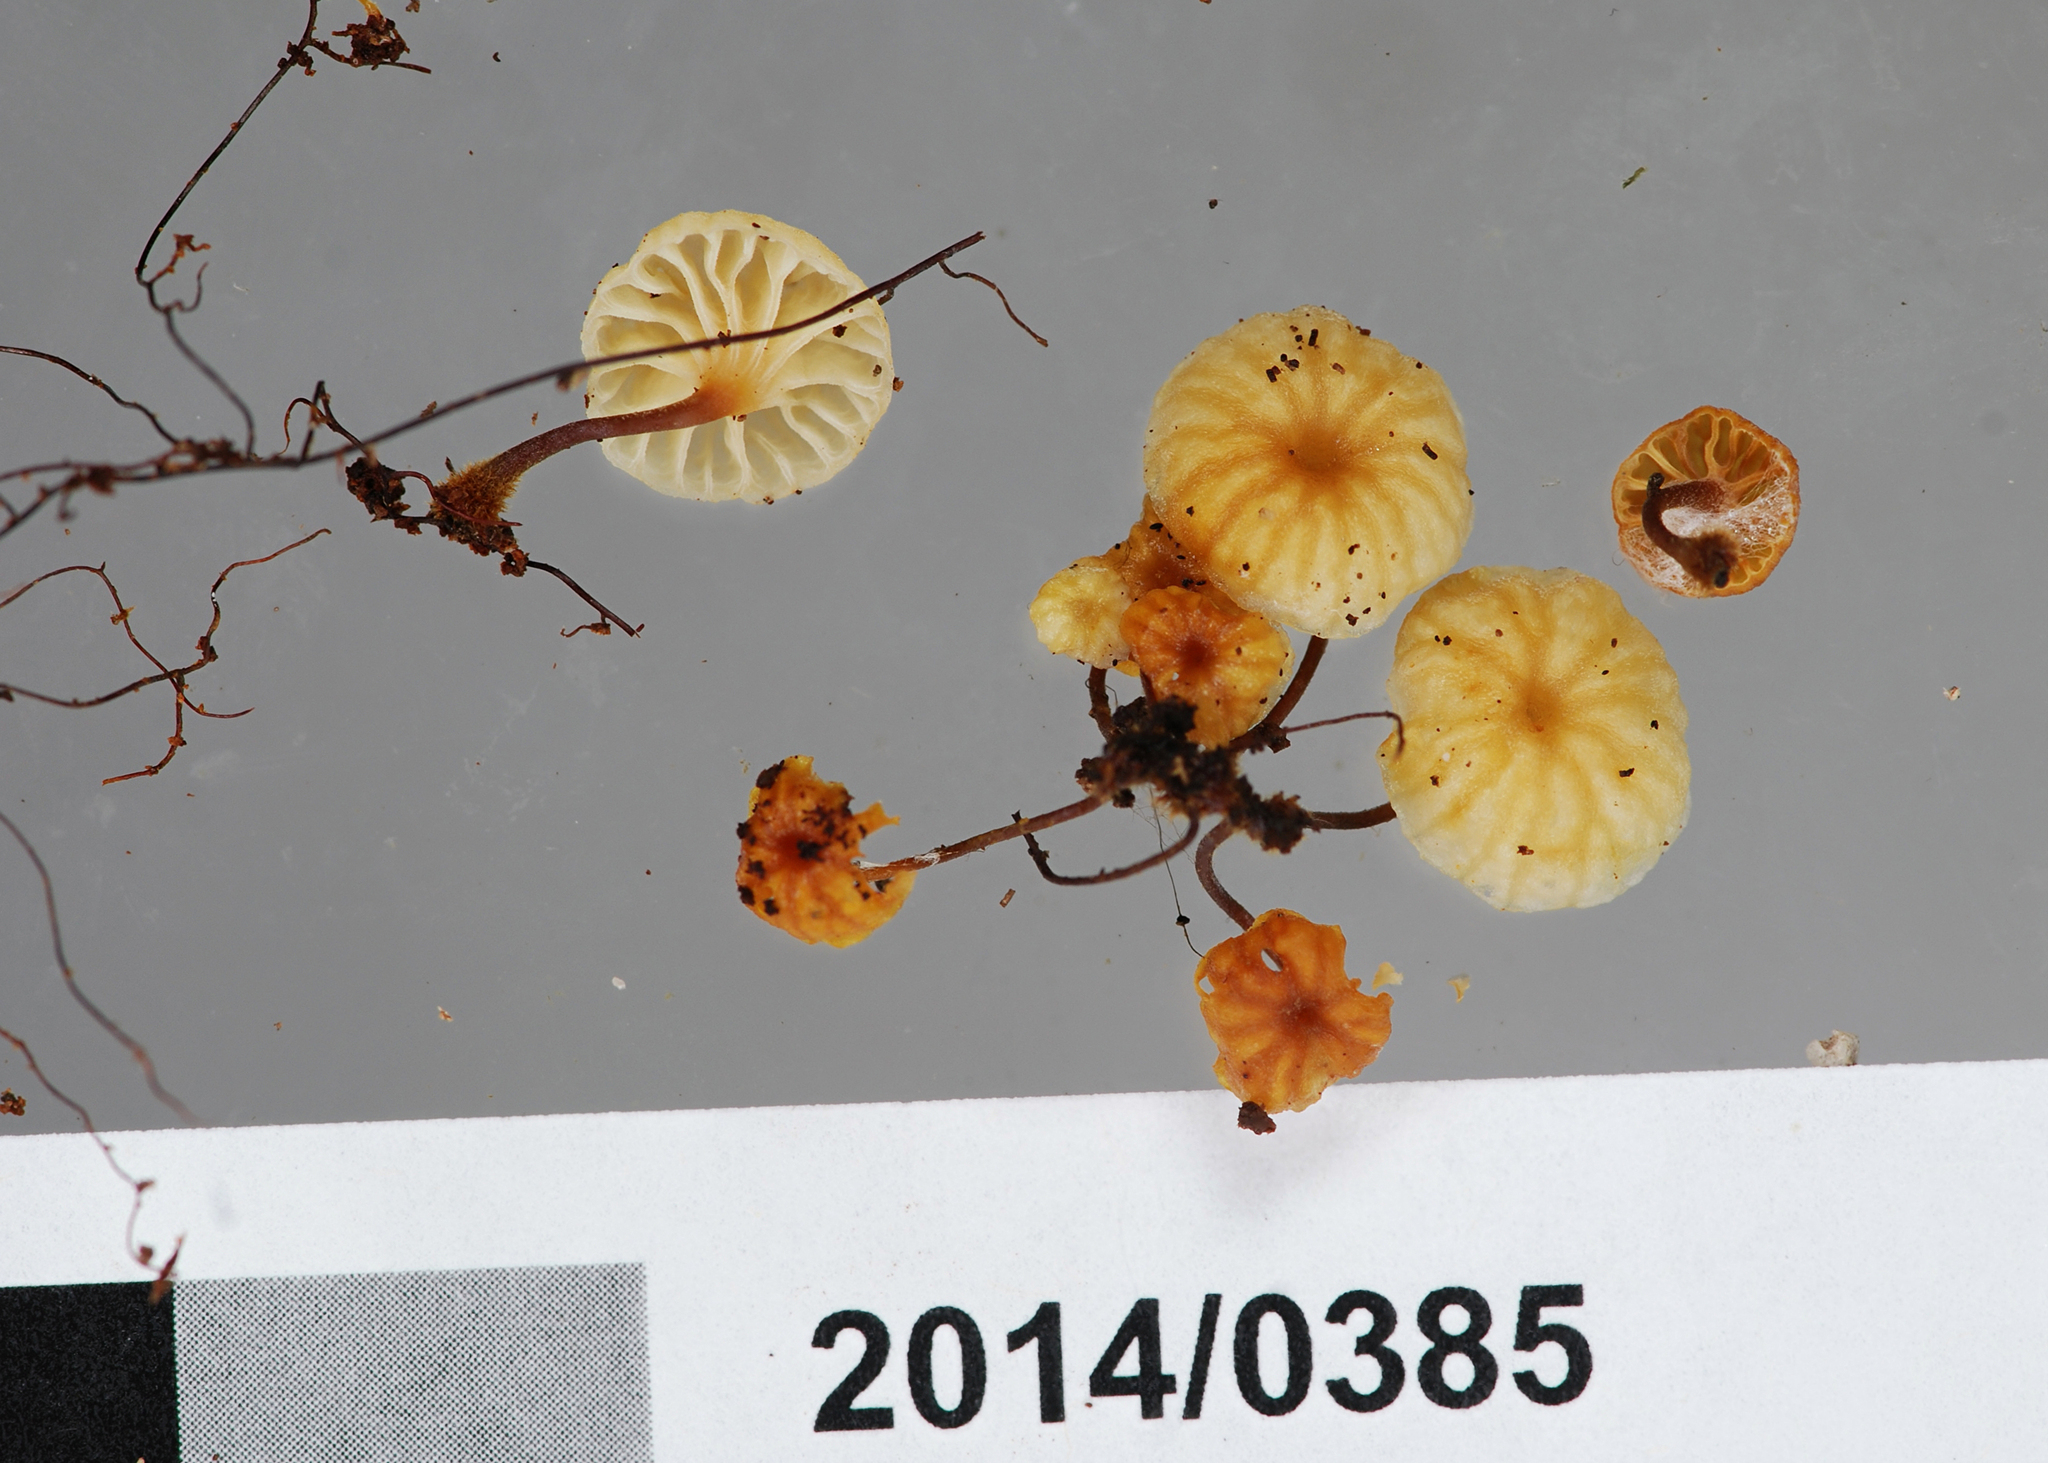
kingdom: Fungi
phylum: Basidiomycota
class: Agaricomycetes
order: Agaricales
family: Mycenaceae
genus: Xeromphalina
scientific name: Xeromphalina leonina
